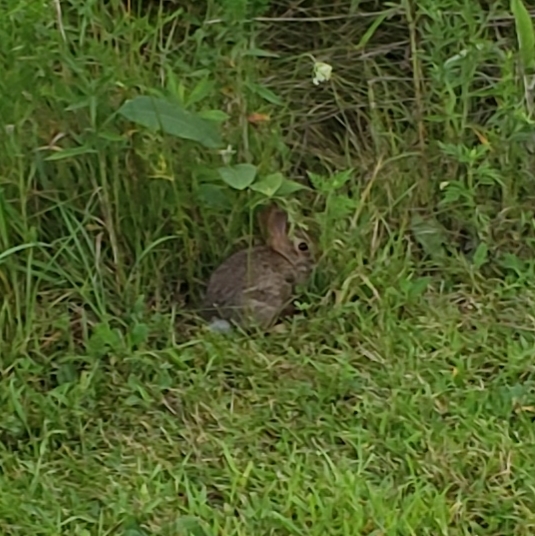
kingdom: Animalia
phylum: Chordata
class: Mammalia
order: Lagomorpha
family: Leporidae
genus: Sylvilagus
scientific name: Sylvilagus floridanus
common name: Eastern cottontail
